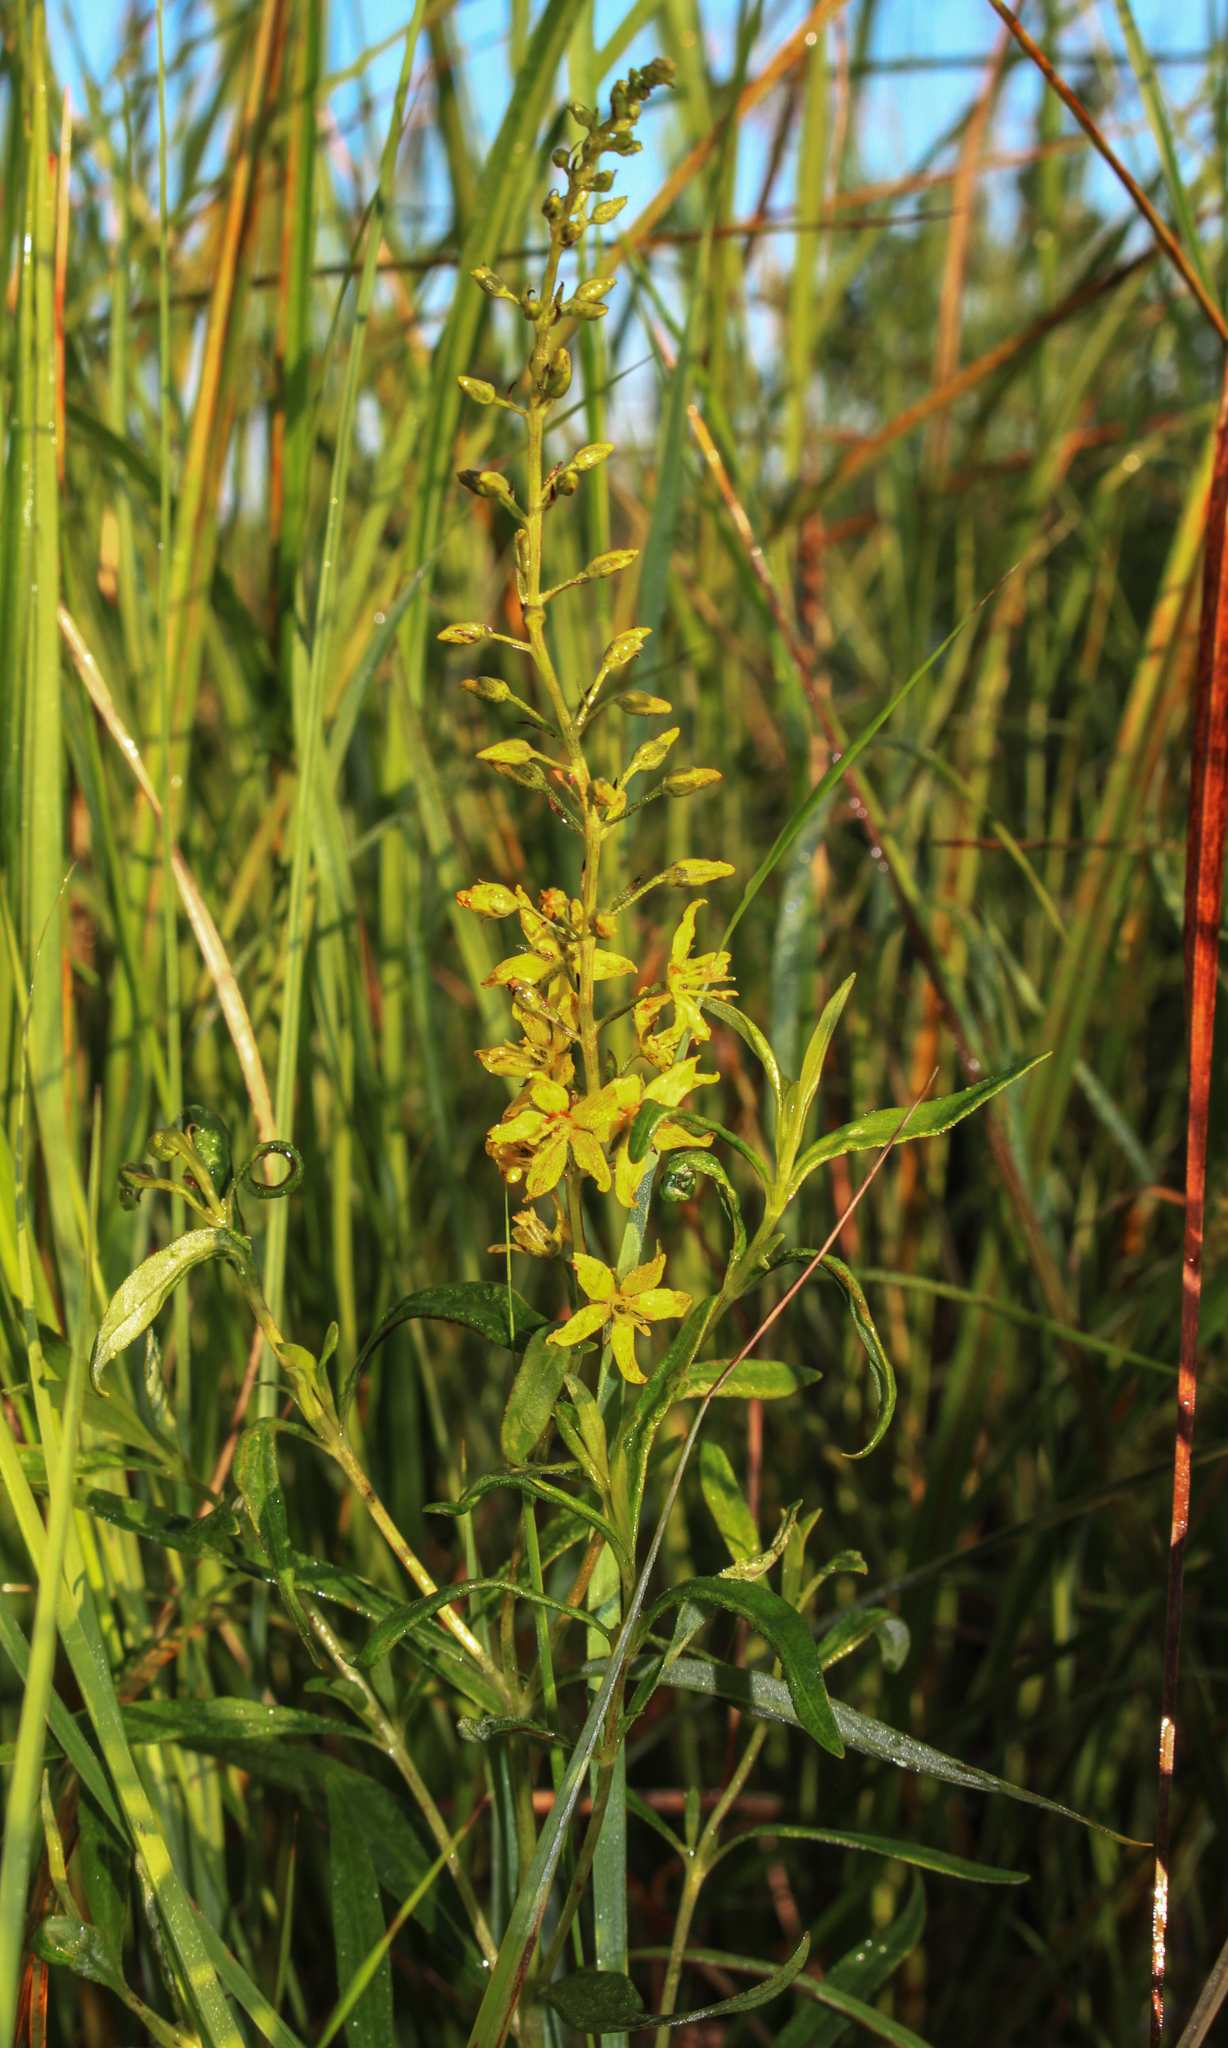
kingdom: Plantae
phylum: Tracheophyta
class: Magnoliopsida
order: Ericales
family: Primulaceae
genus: Lysimachia
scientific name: Lysimachia terrestris
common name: Lake loosestrife
